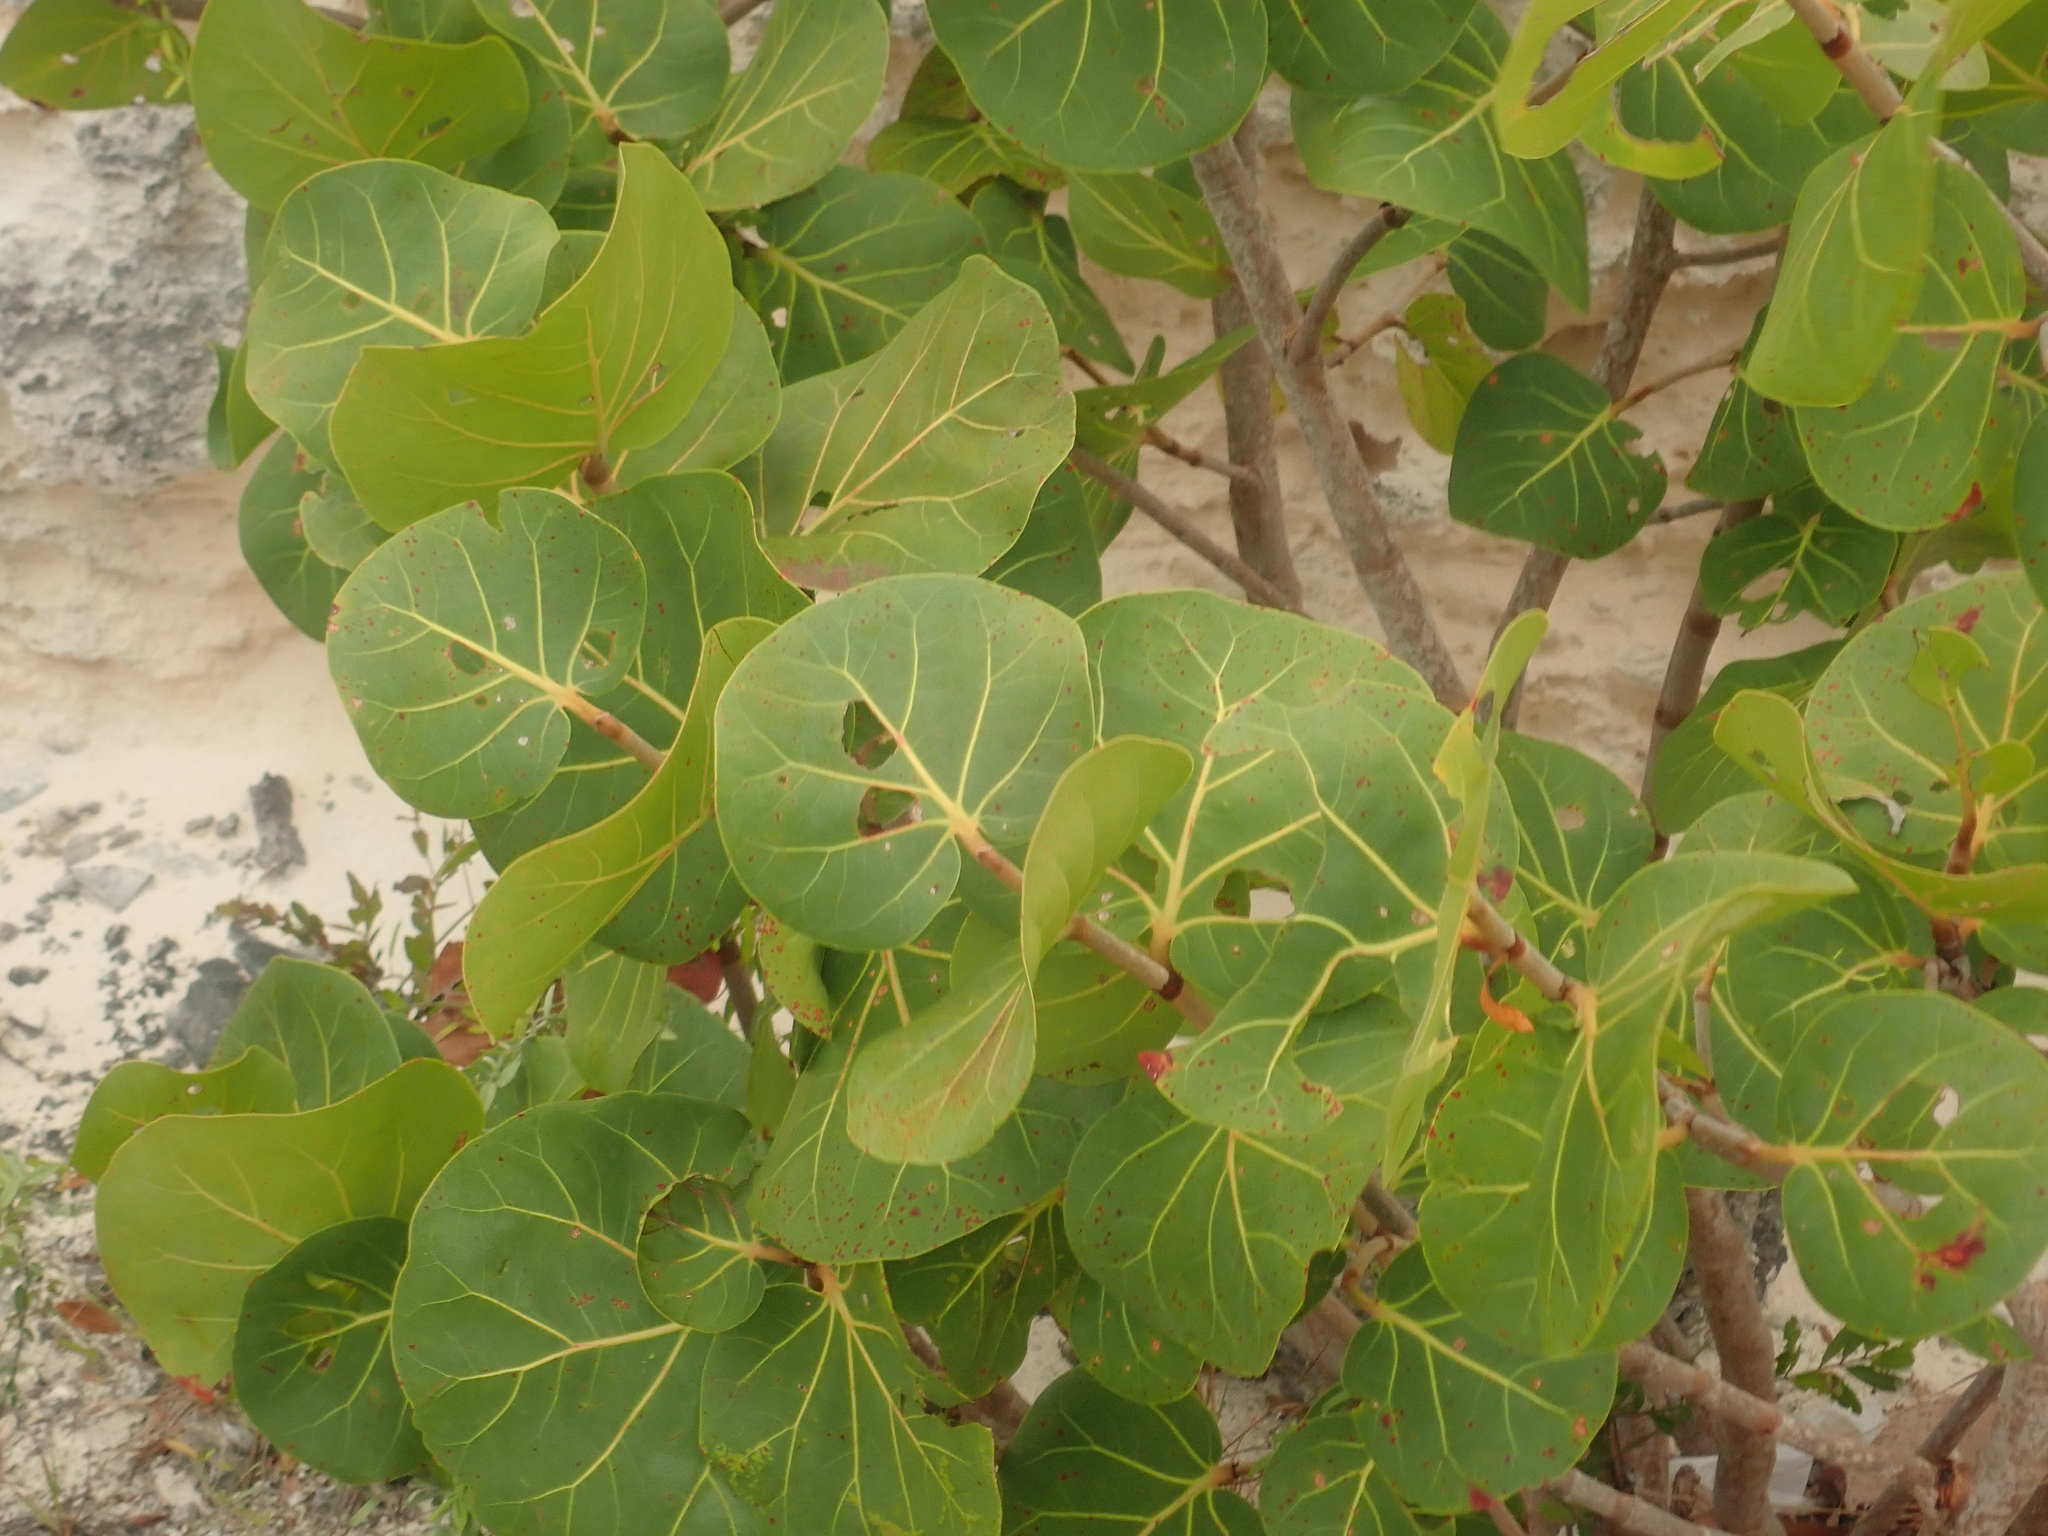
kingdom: Plantae
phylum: Tracheophyta
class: Magnoliopsida
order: Caryophyllales
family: Polygonaceae
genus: Coccoloba
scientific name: Coccoloba uvifera
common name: Seagrape
